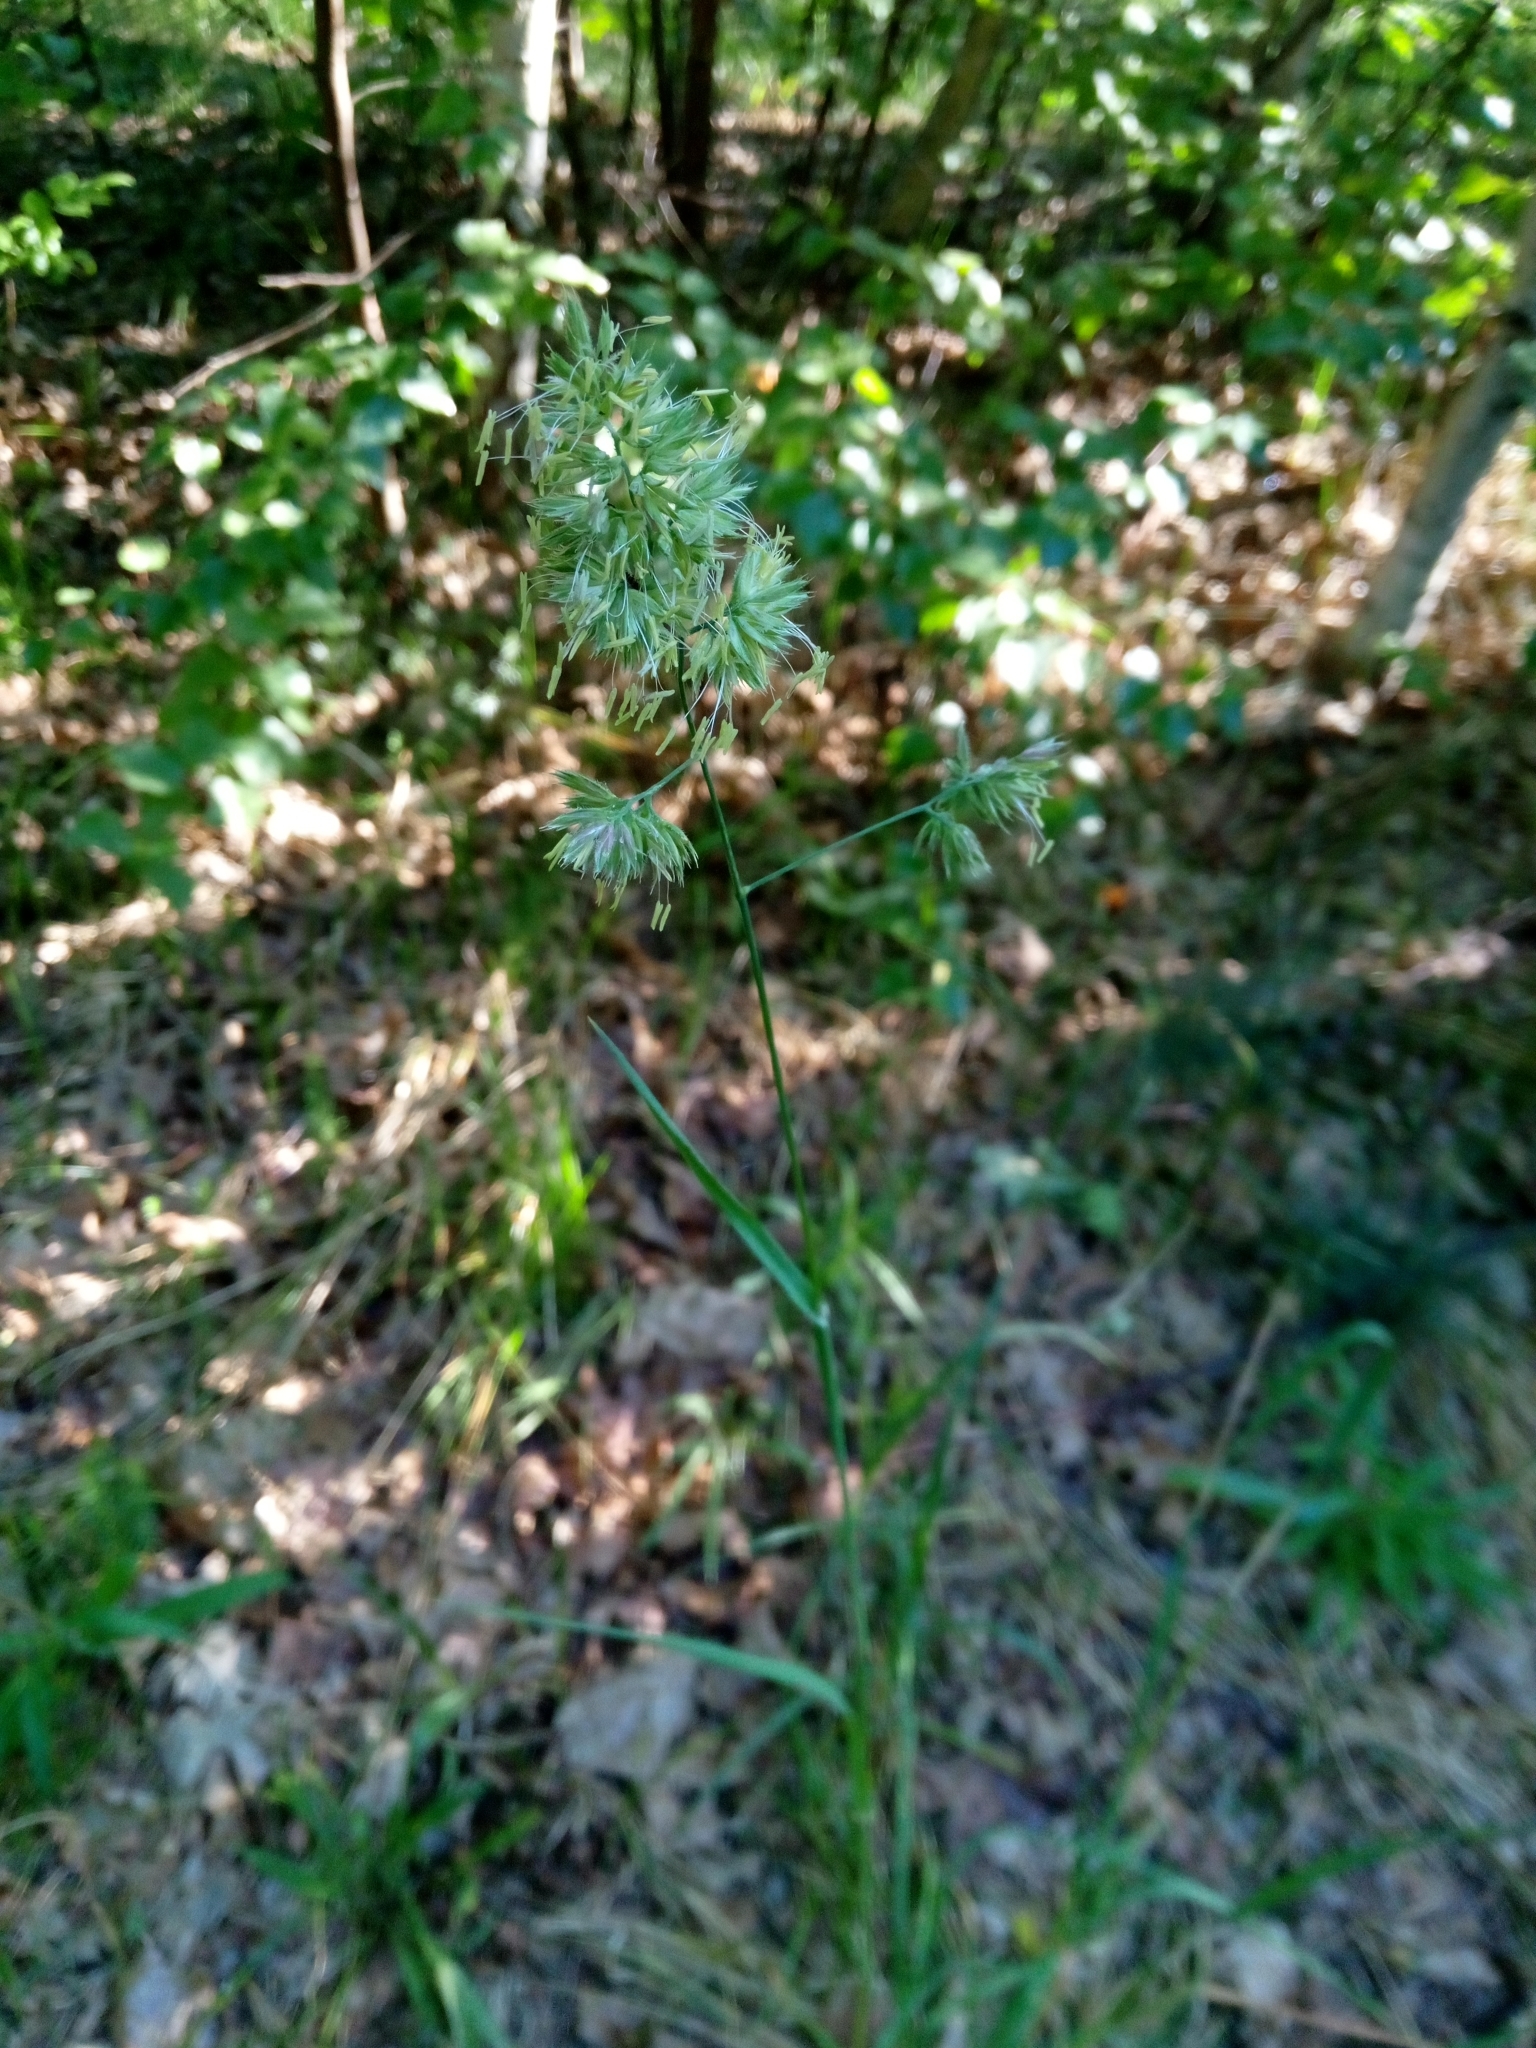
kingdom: Plantae
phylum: Tracheophyta
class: Liliopsida
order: Poales
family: Poaceae
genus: Dactylis
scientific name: Dactylis glomerata
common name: Orchardgrass
